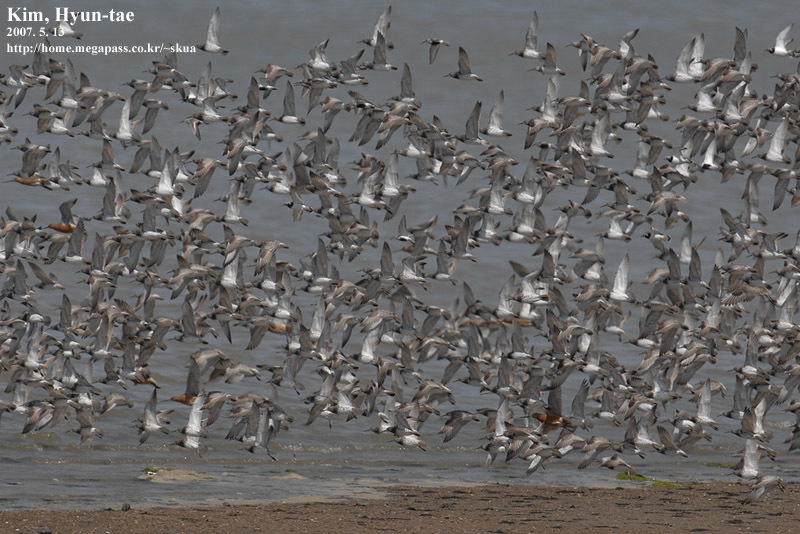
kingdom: Animalia
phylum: Chordata
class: Aves
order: Charadriiformes
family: Scolopacidae
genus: Limosa
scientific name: Limosa lapponica
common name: Bar-tailed godwit
